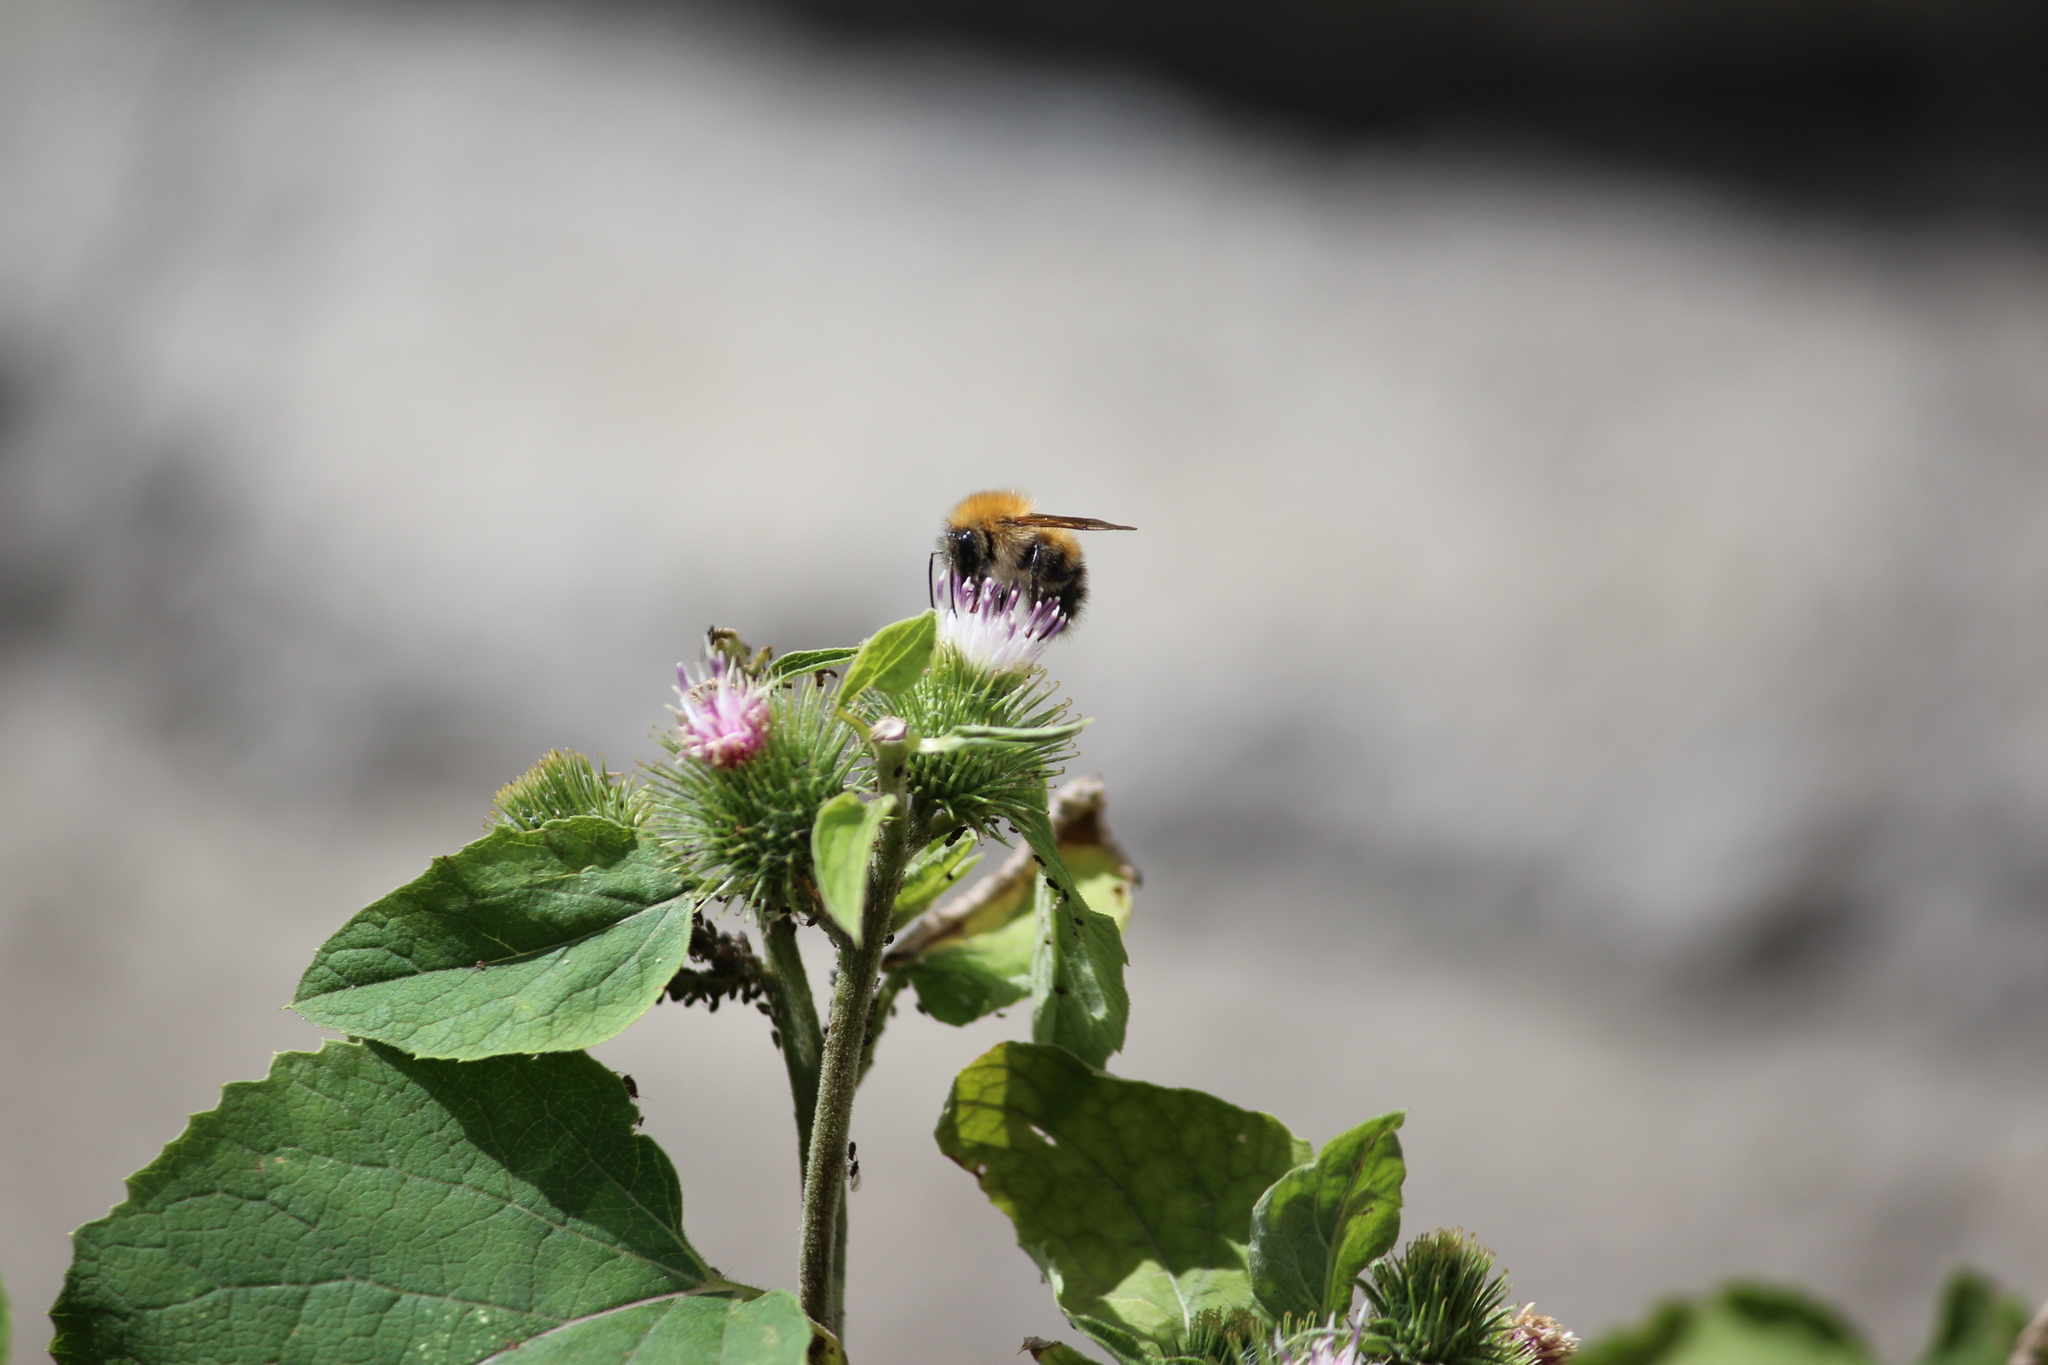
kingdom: Animalia
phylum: Arthropoda
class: Insecta
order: Hymenoptera
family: Apidae
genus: Bombus
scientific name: Bombus hypnorum
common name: New garden bumblebee
